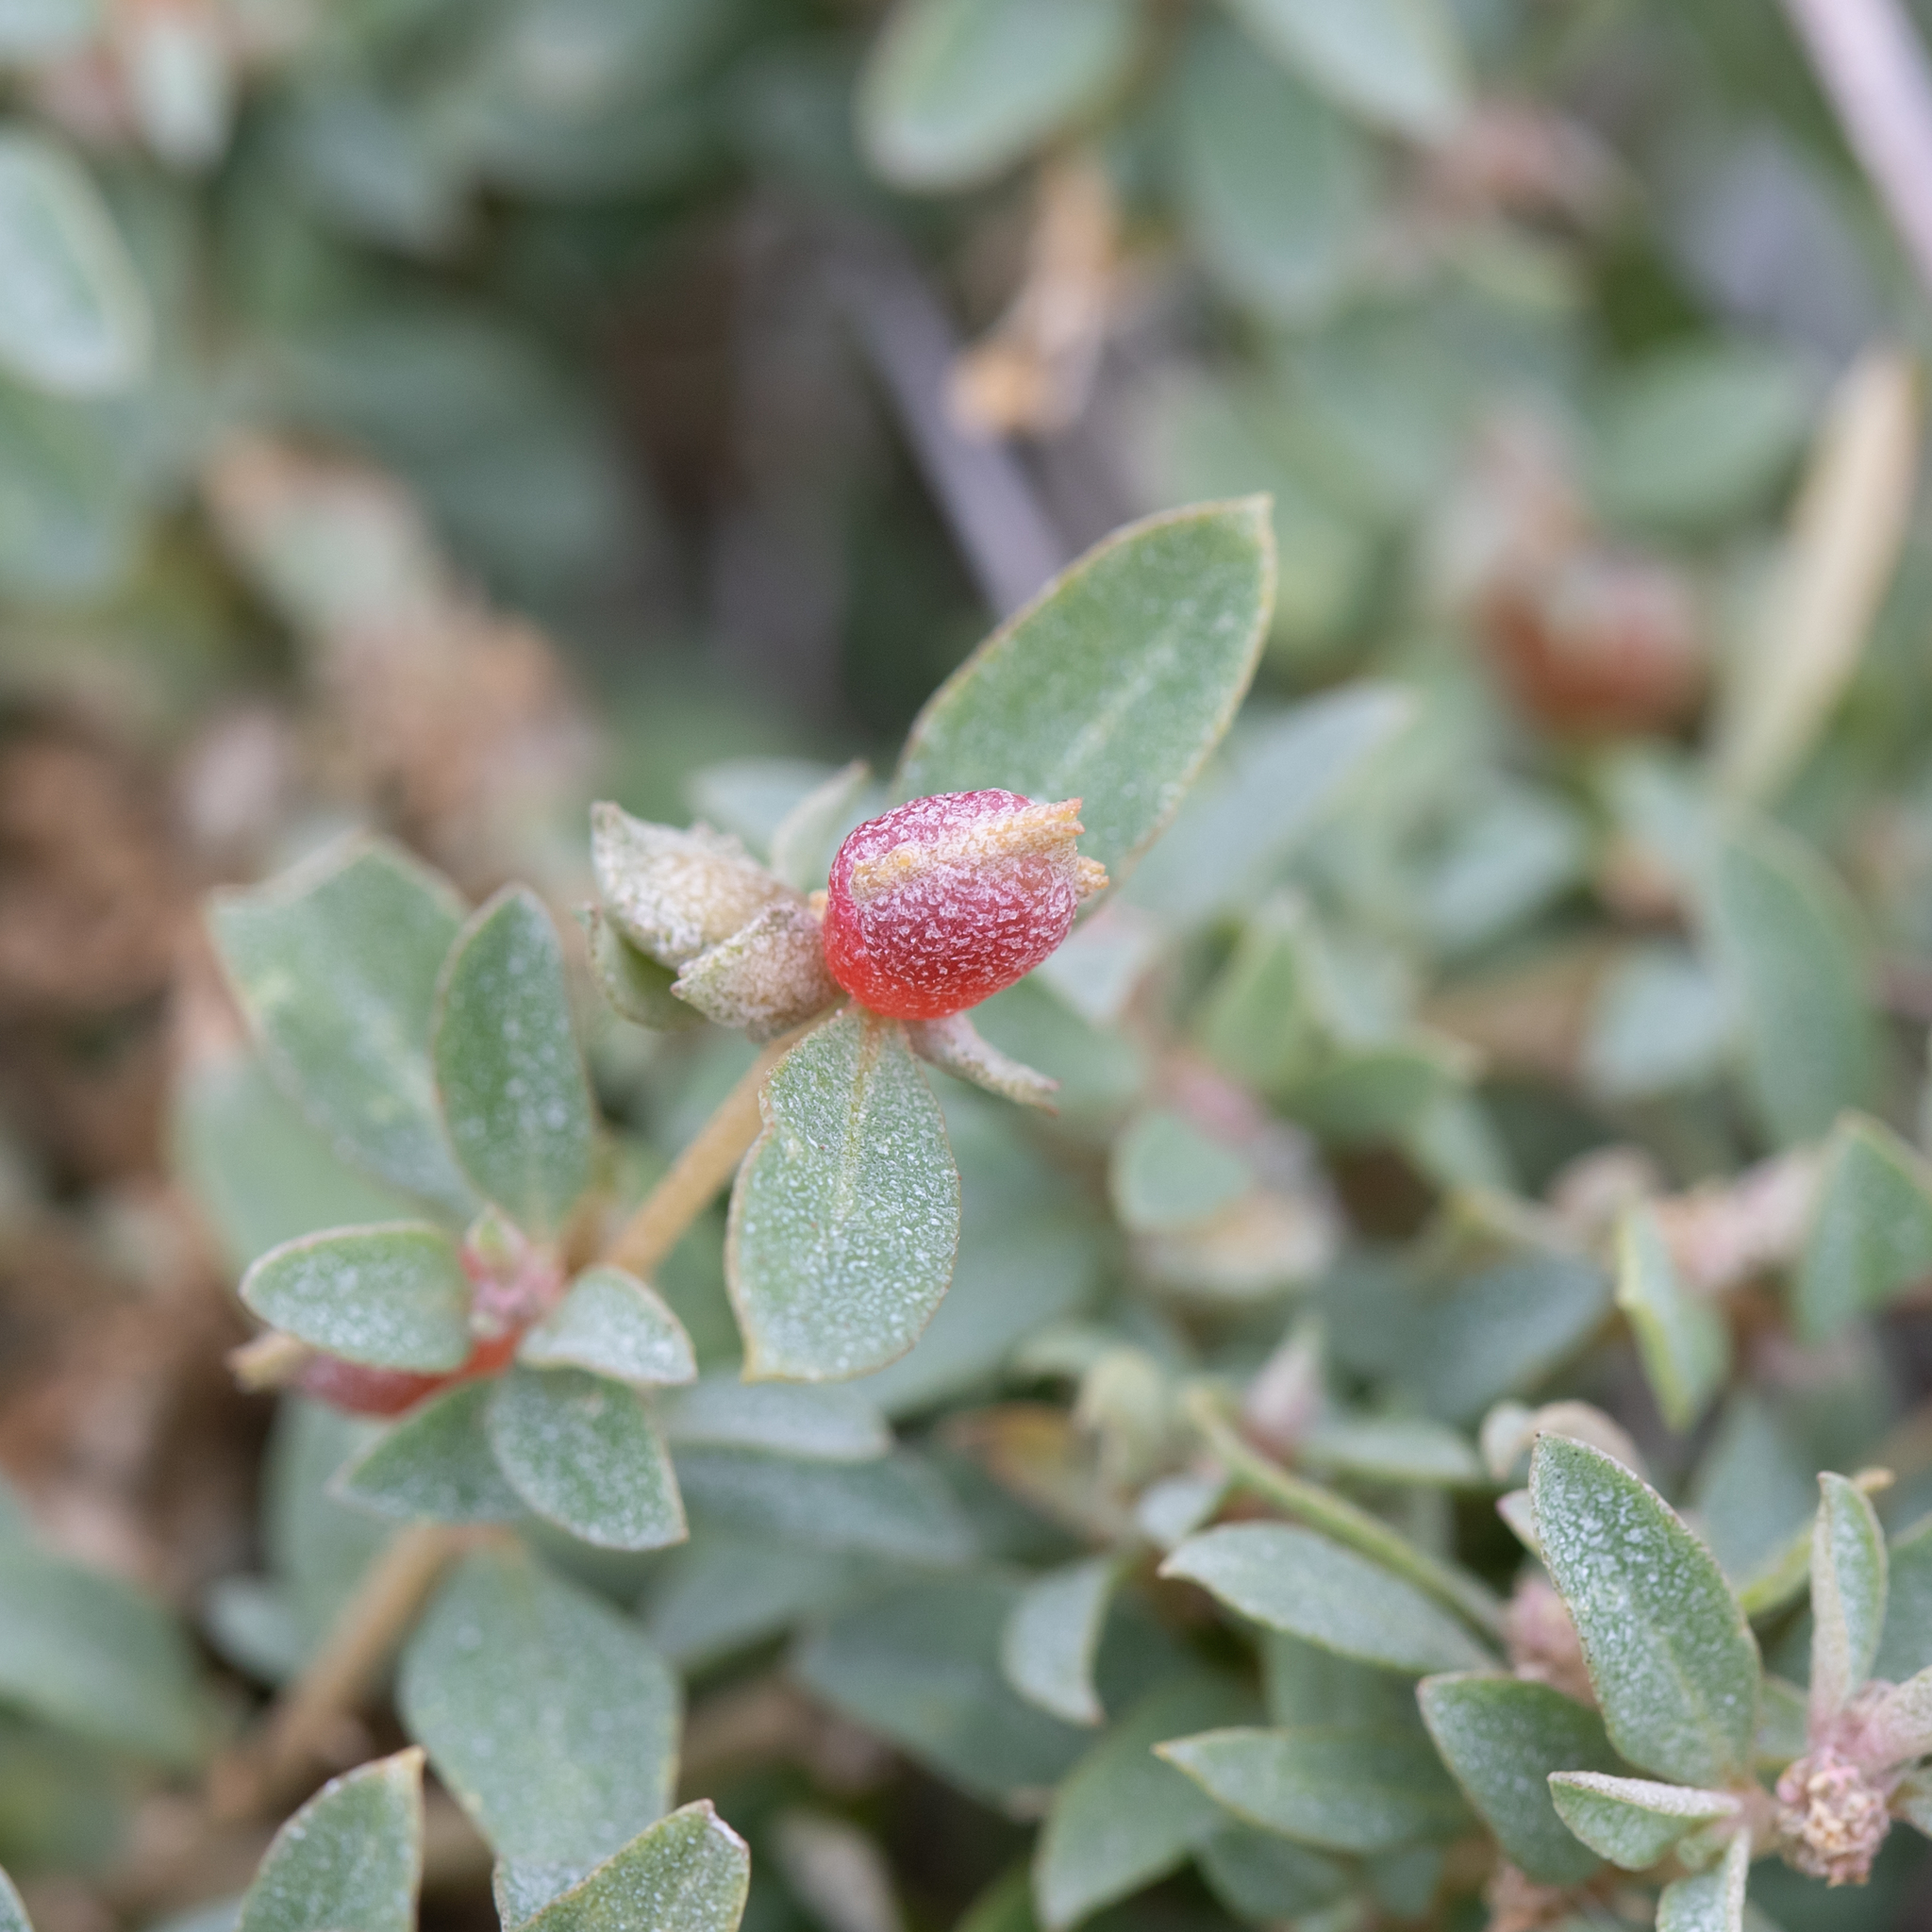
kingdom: Plantae
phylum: Tracheophyta
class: Magnoliopsida
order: Caryophyllales
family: Amaranthaceae
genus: Atriplex
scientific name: Atriplex semibaccata
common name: Australian saltbush
